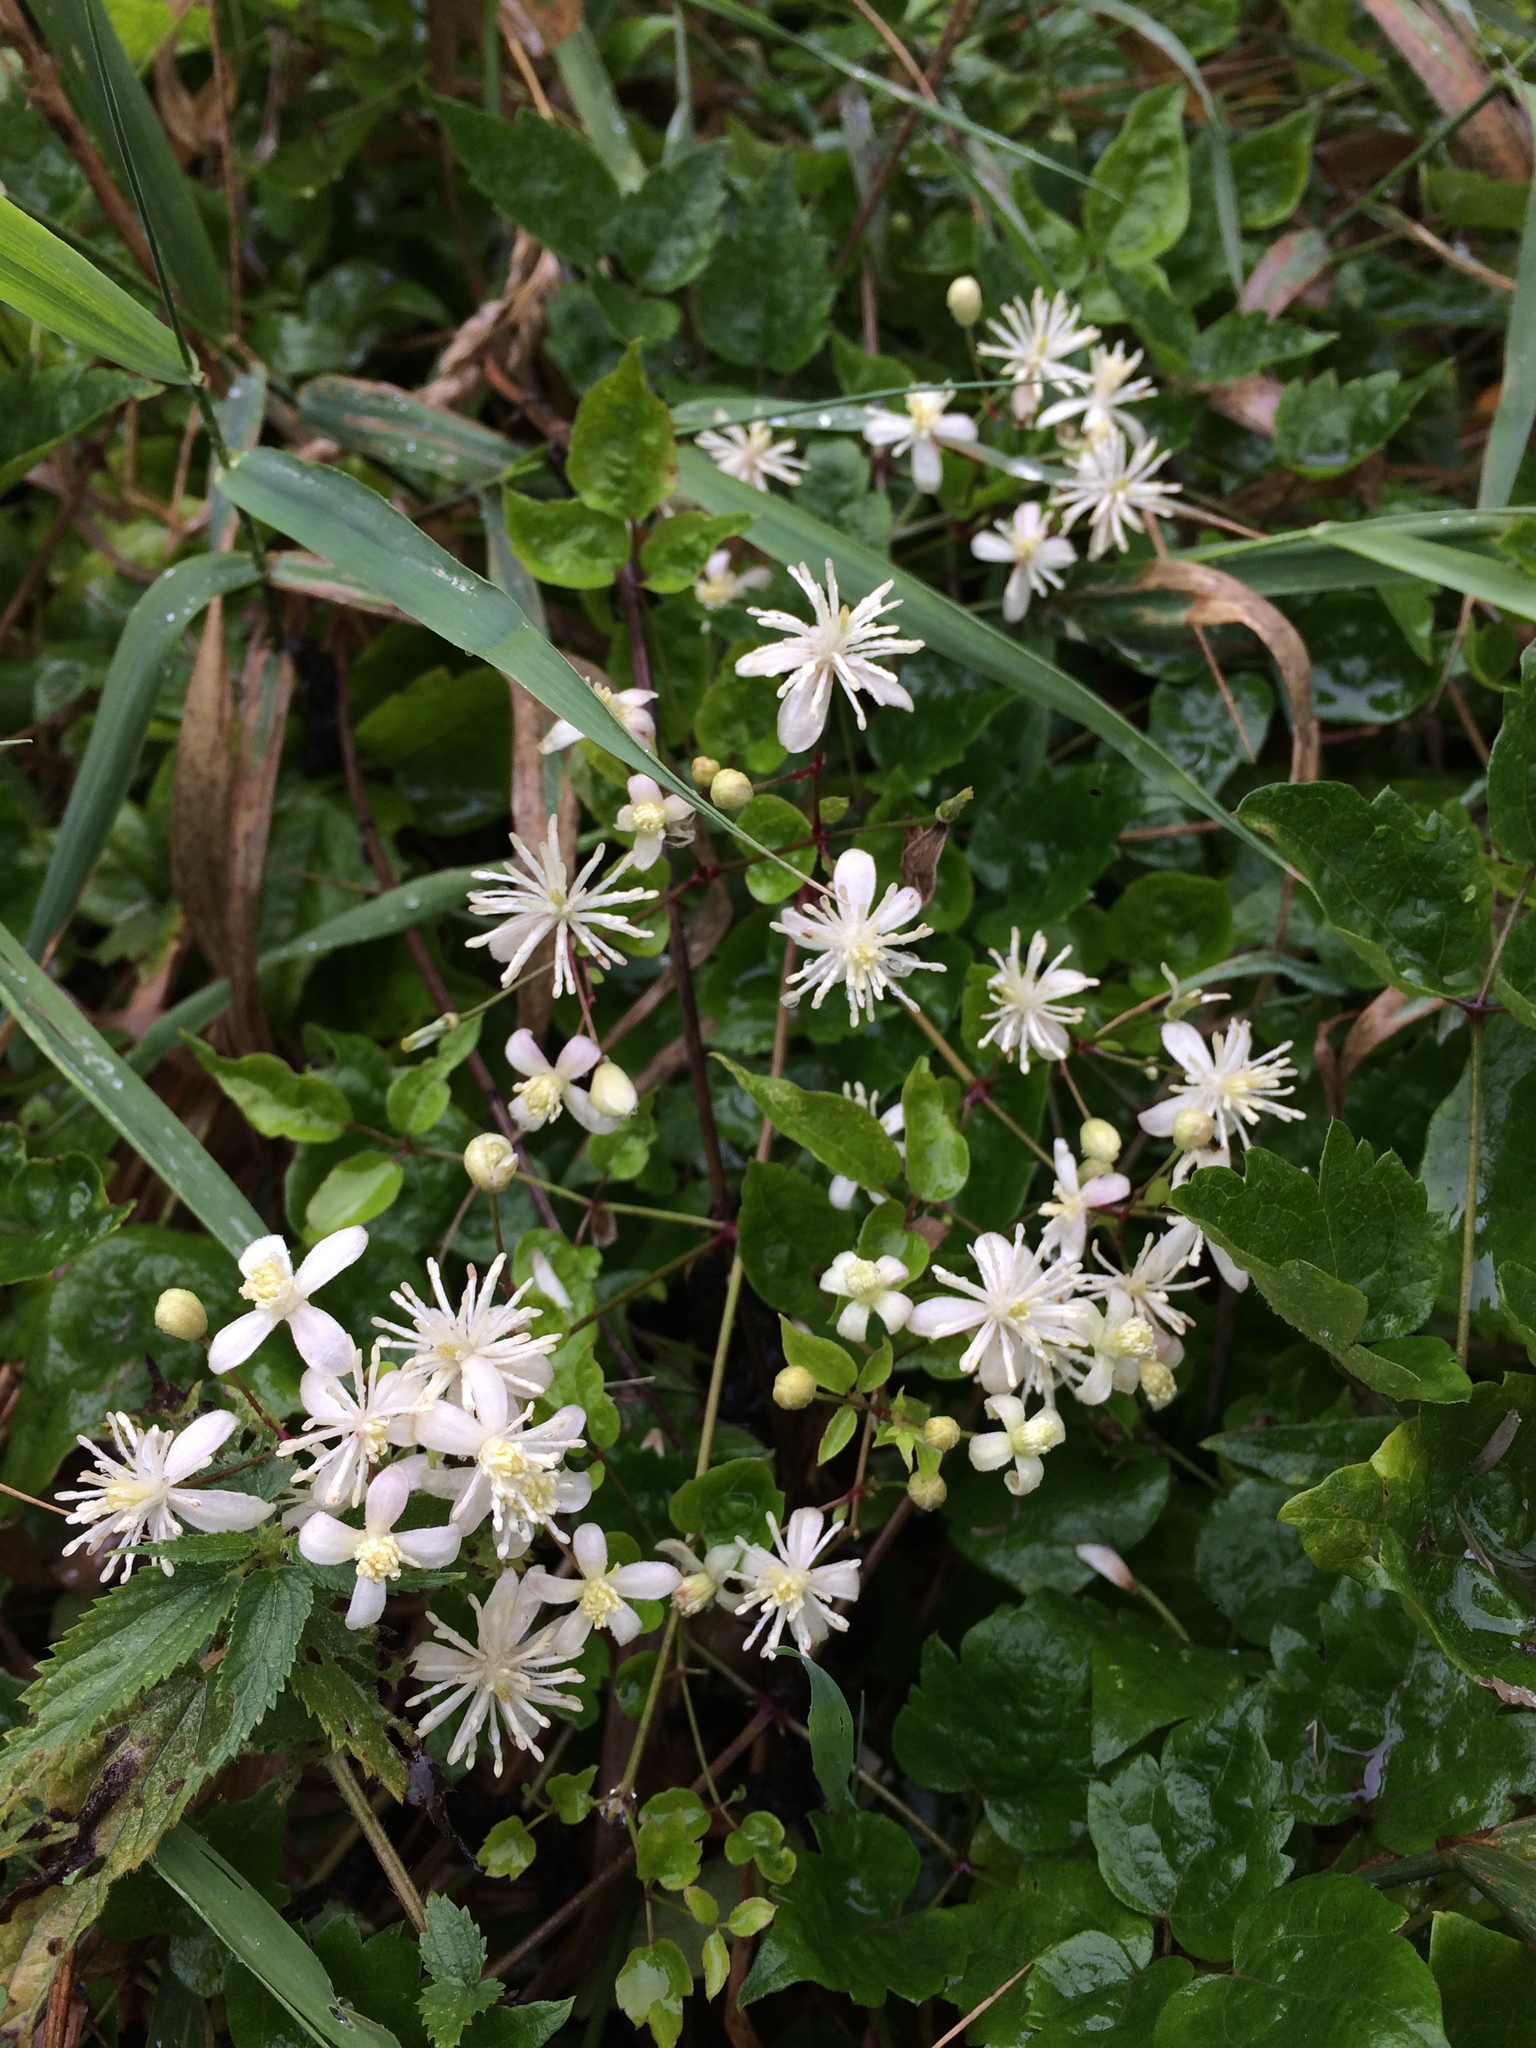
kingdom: Plantae
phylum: Tracheophyta
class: Magnoliopsida
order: Ranunculales
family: Ranunculaceae
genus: Clematis
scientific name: Clematis vitalba
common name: Evergreen clematis
